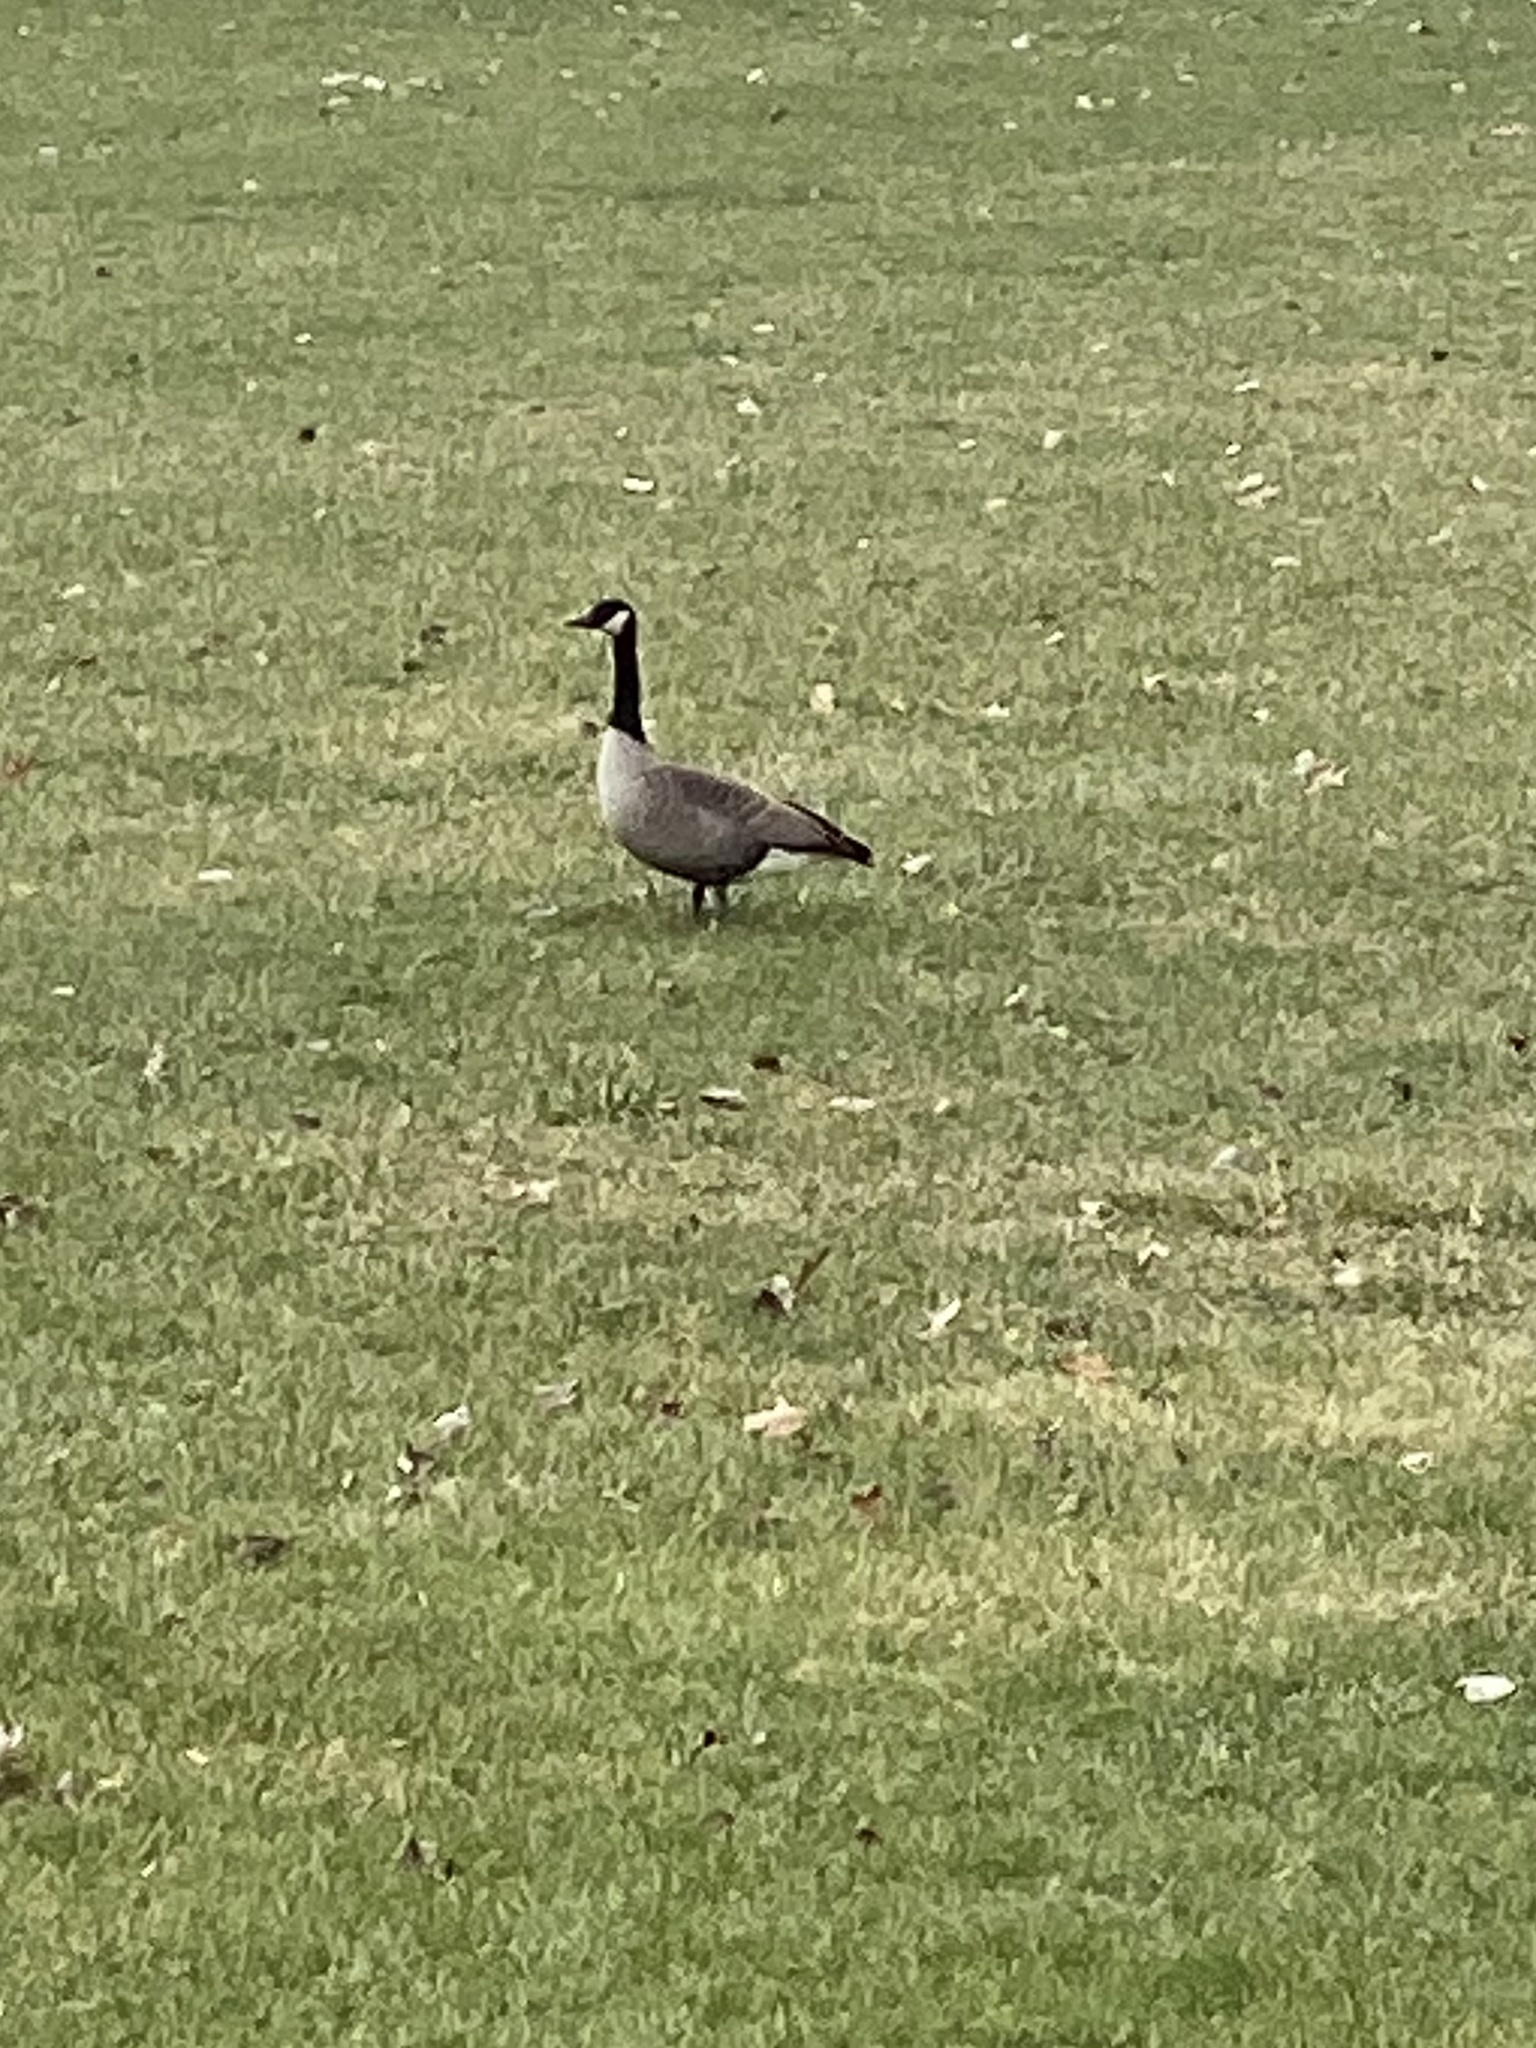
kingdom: Animalia
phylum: Chordata
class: Aves
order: Anseriformes
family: Anatidae
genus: Branta
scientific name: Branta canadensis
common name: Canada goose
